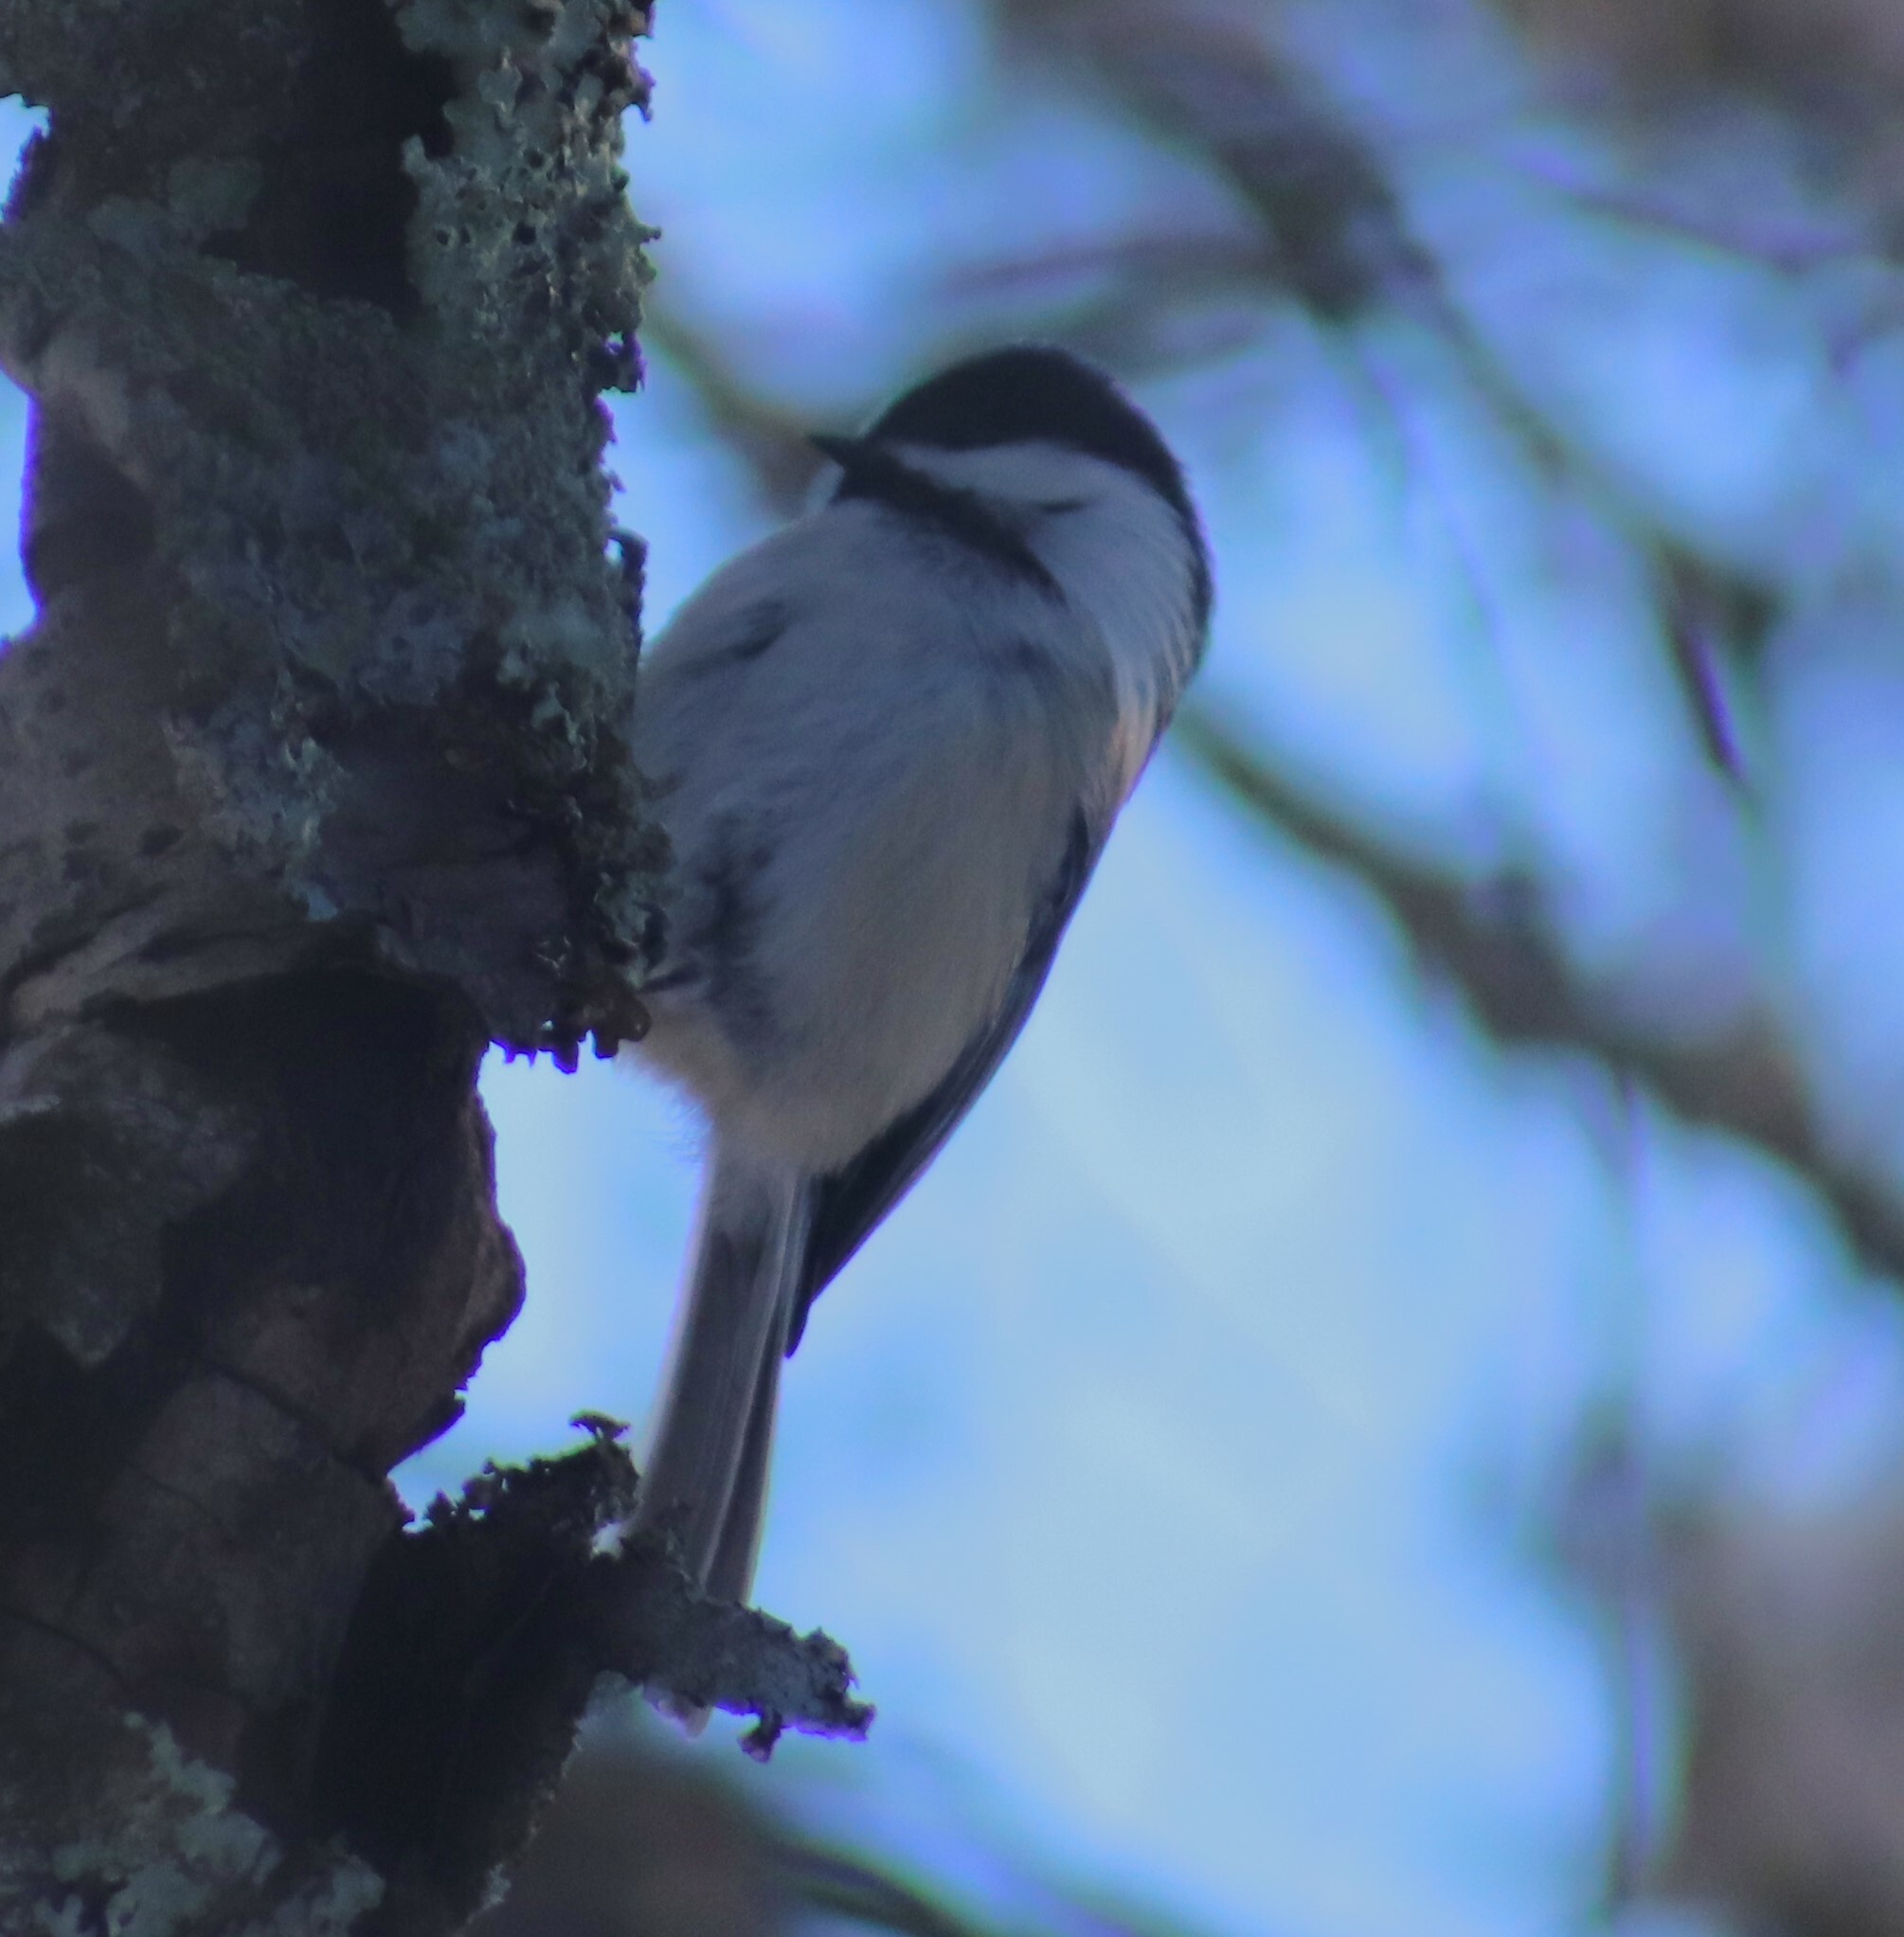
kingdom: Animalia
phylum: Chordata
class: Aves
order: Passeriformes
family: Paridae
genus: Poecile
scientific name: Poecile atricapillus
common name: Black-capped chickadee
